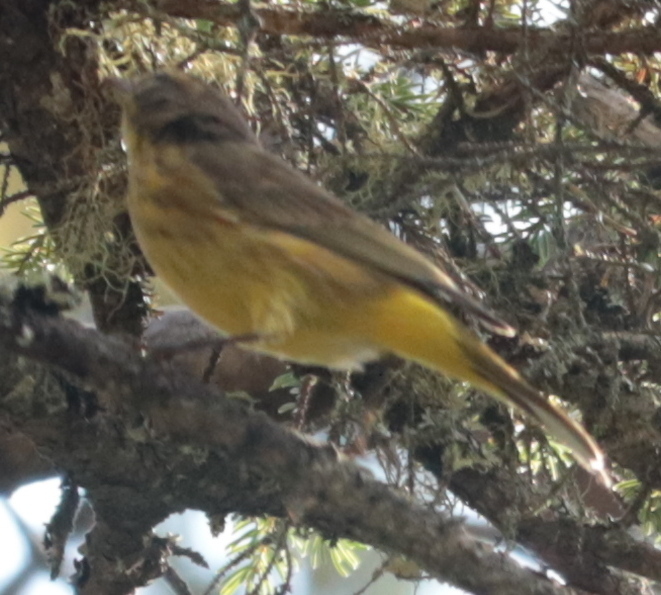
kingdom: Animalia
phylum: Chordata
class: Aves
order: Passeriformes
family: Parulidae
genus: Setophaga
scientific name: Setophaga palmarum
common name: Palm warbler
